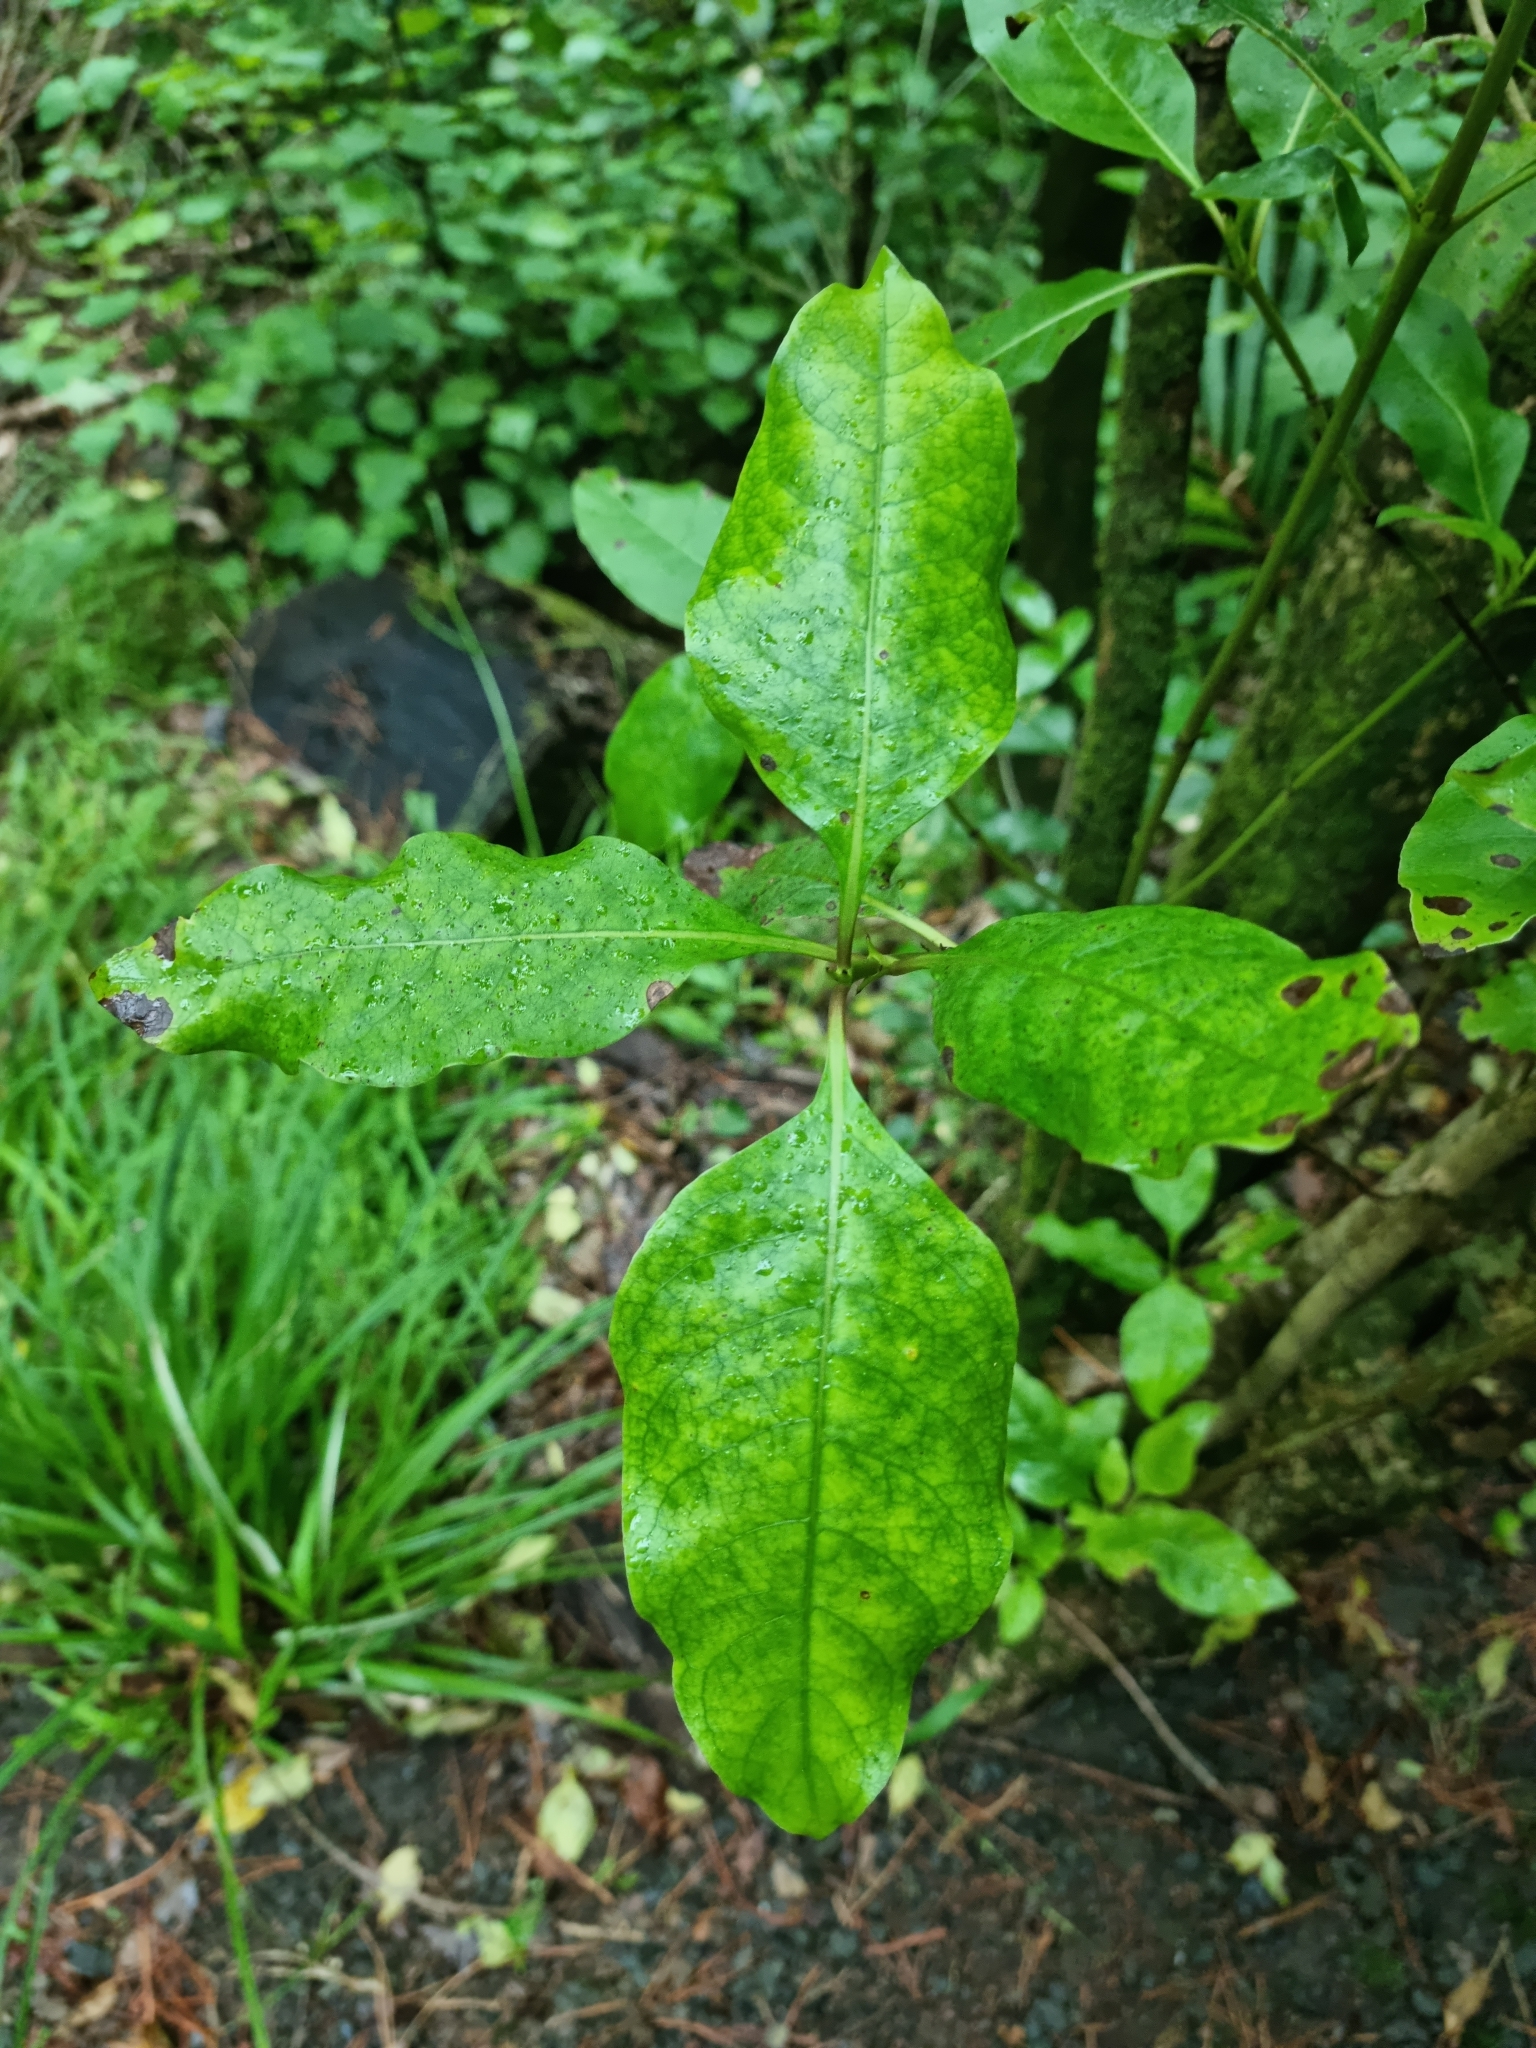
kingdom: Plantae
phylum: Tracheophyta
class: Magnoliopsida
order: Gentianales
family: Rubiaceae
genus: Coprosma
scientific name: Coprosma autumnalis
